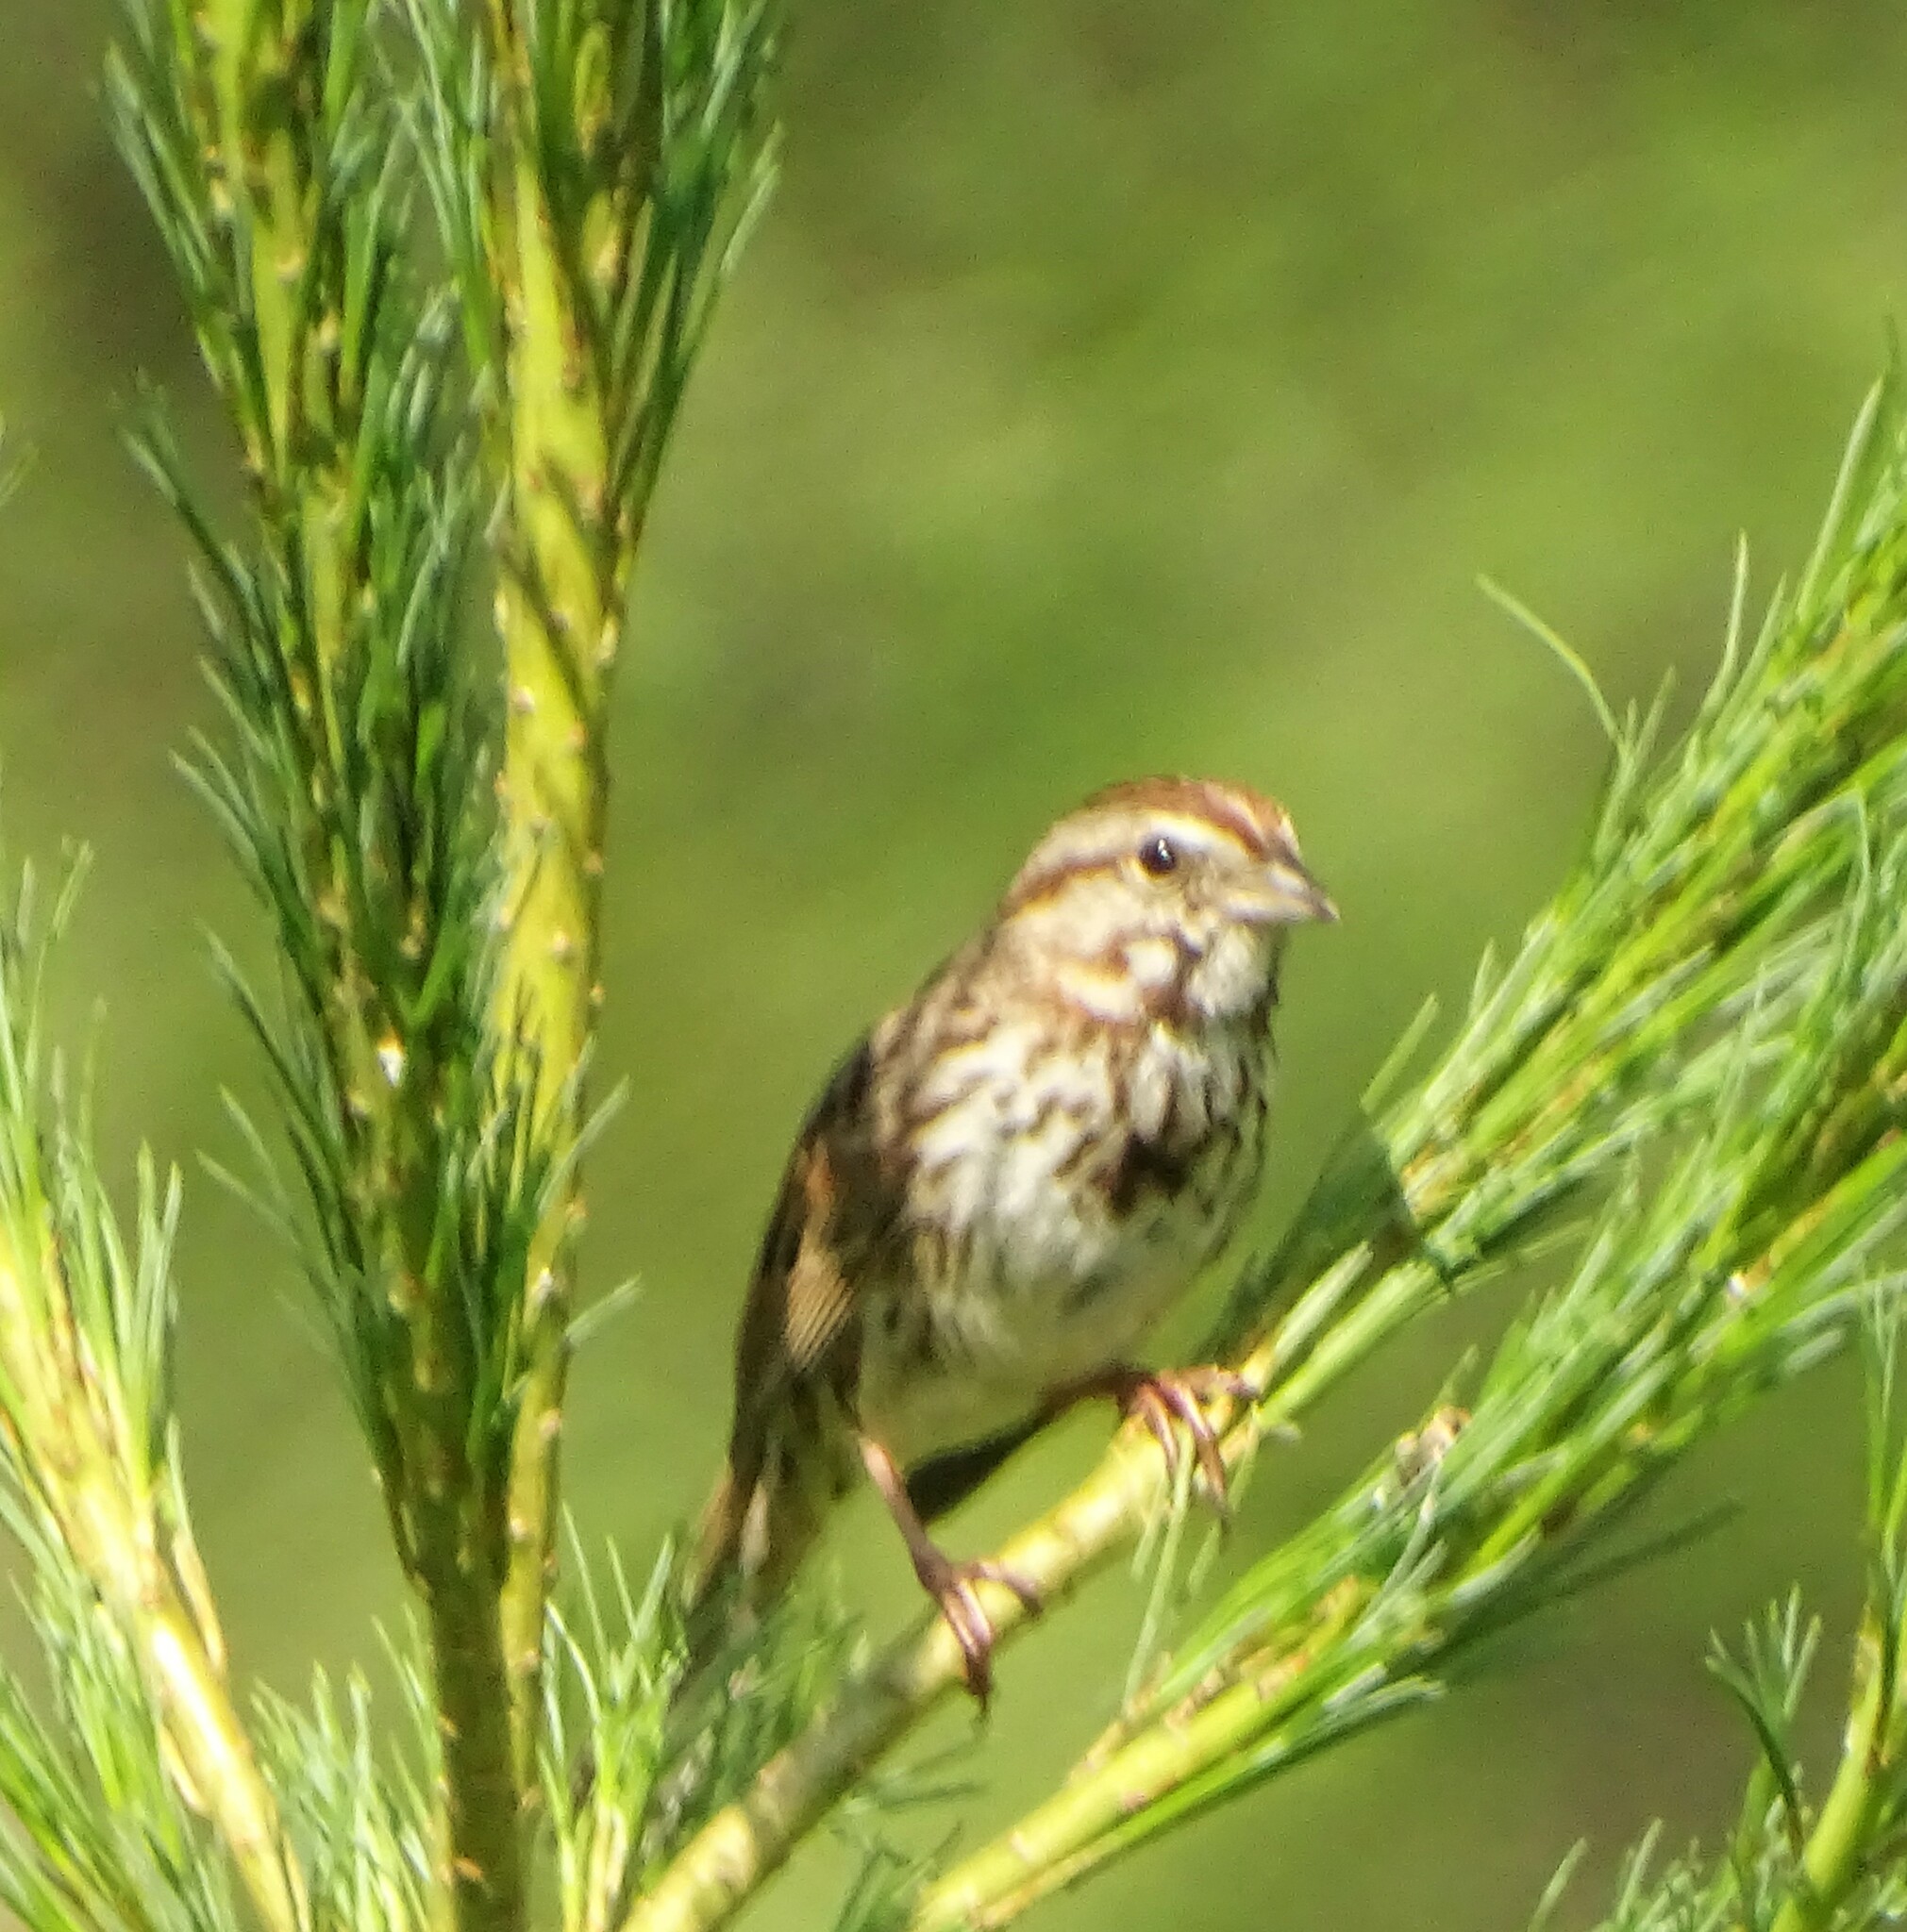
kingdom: Animalia
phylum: Chordata
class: Aves
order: Passeriformes
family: Passerellidae
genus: Melospiza
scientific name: Melospiza melodia
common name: Song sparrow
